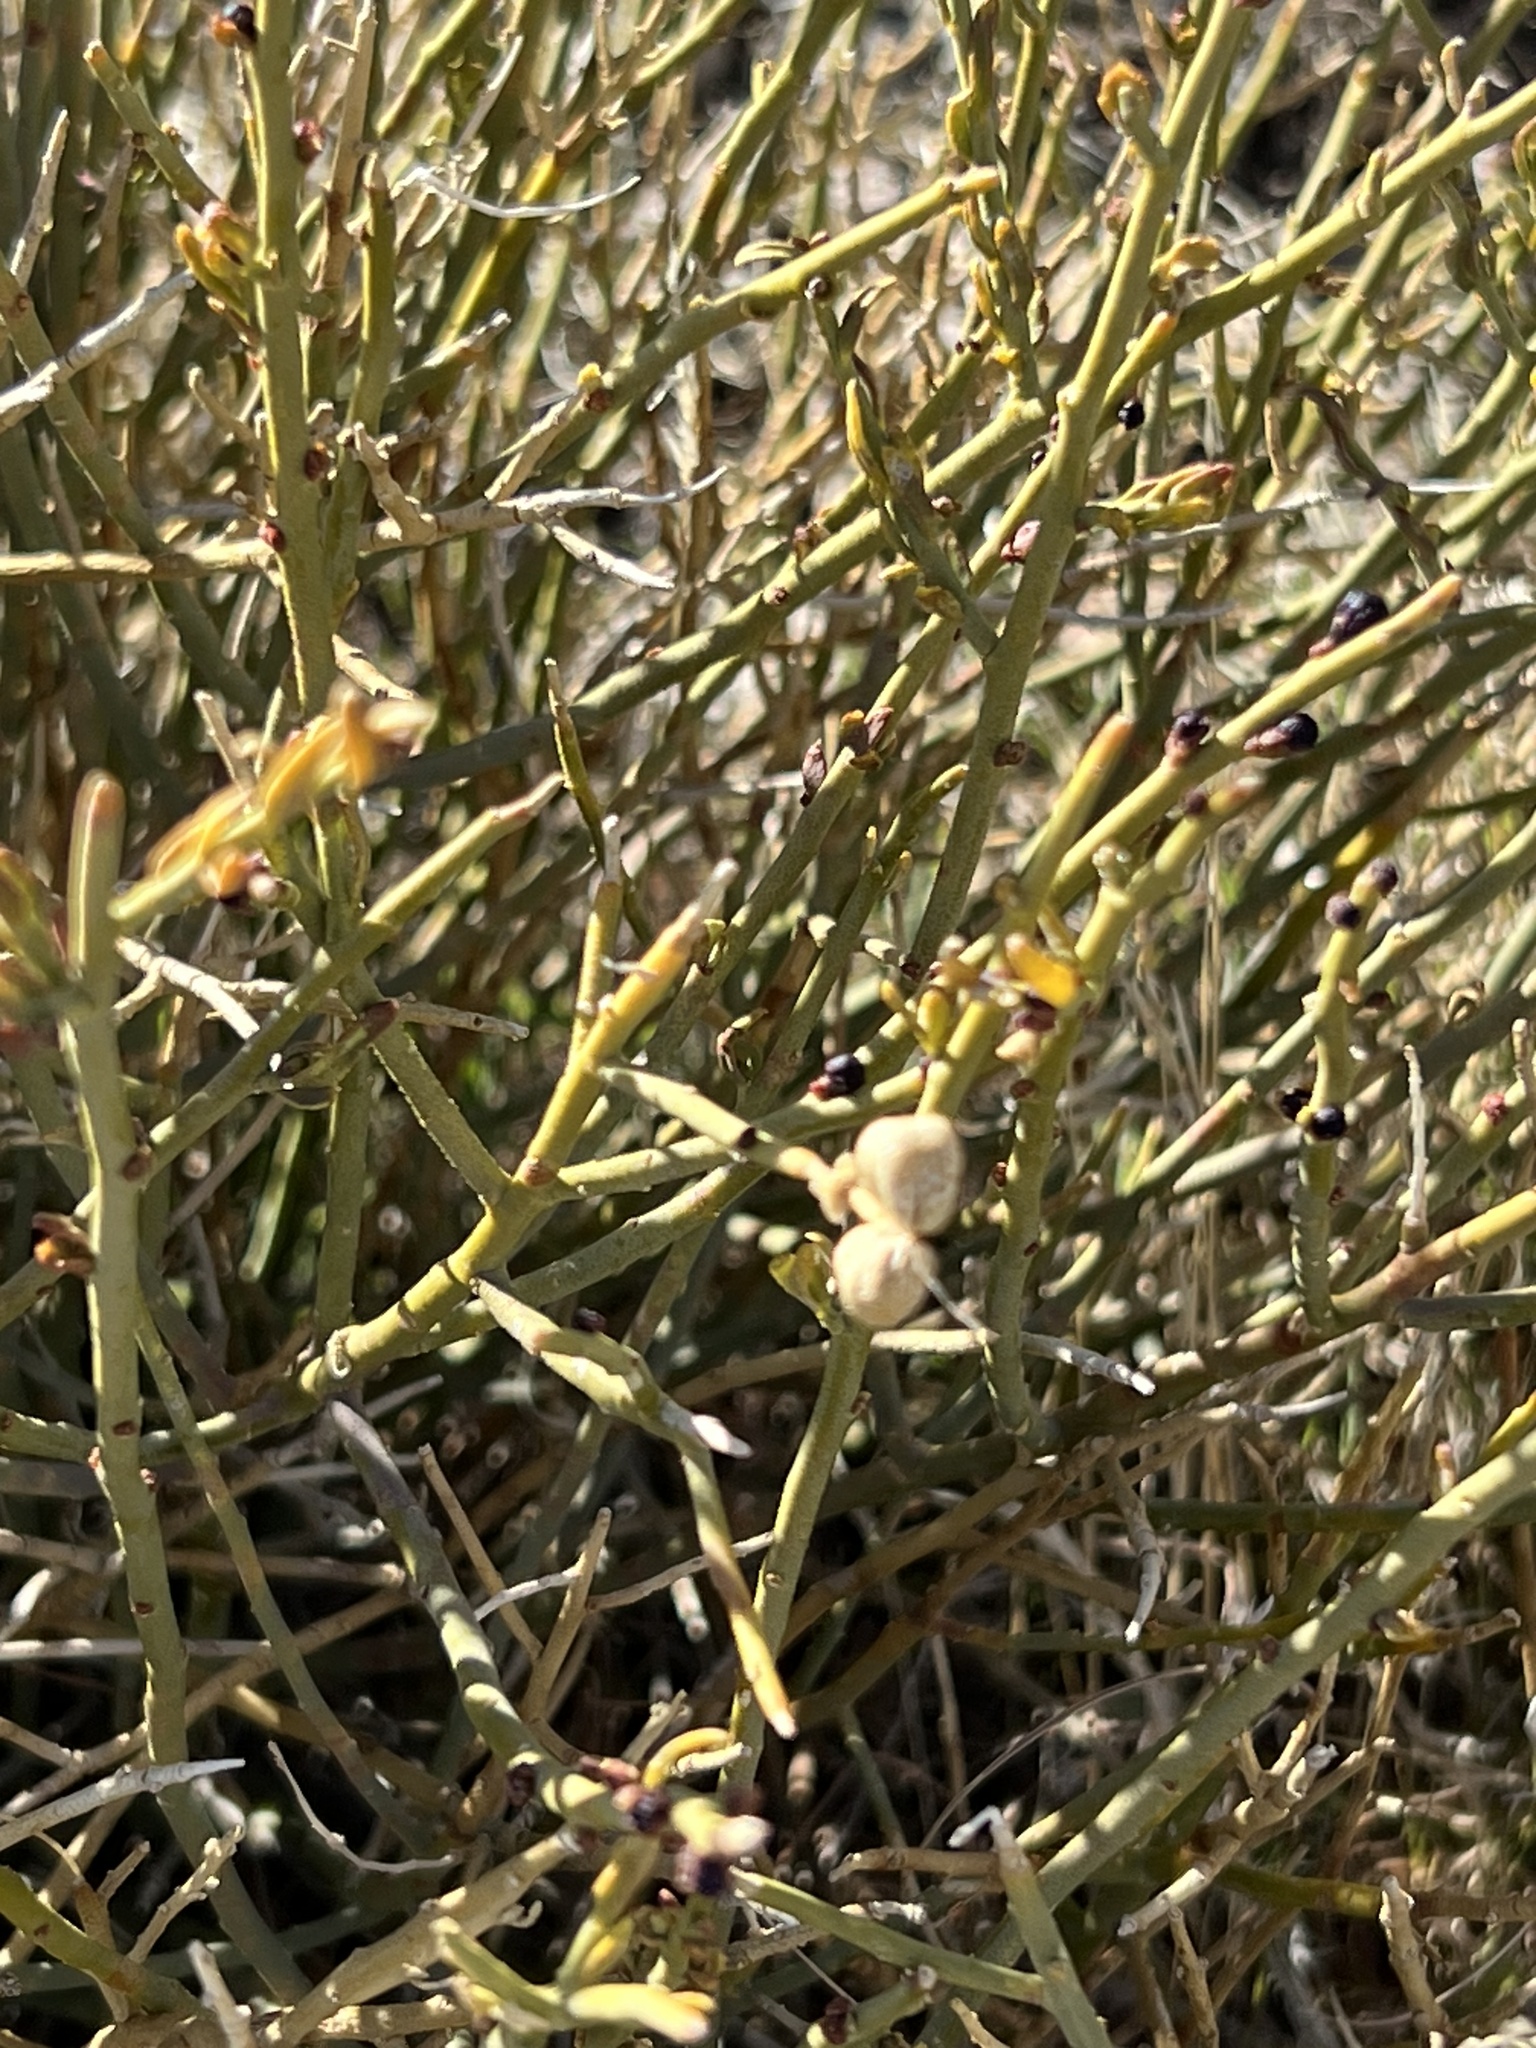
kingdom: Plantae
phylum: Tracheophyta
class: Magnoliopsida
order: Sapindales
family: Rutaceae
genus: Thamnosma
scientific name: Thamnosma montana
